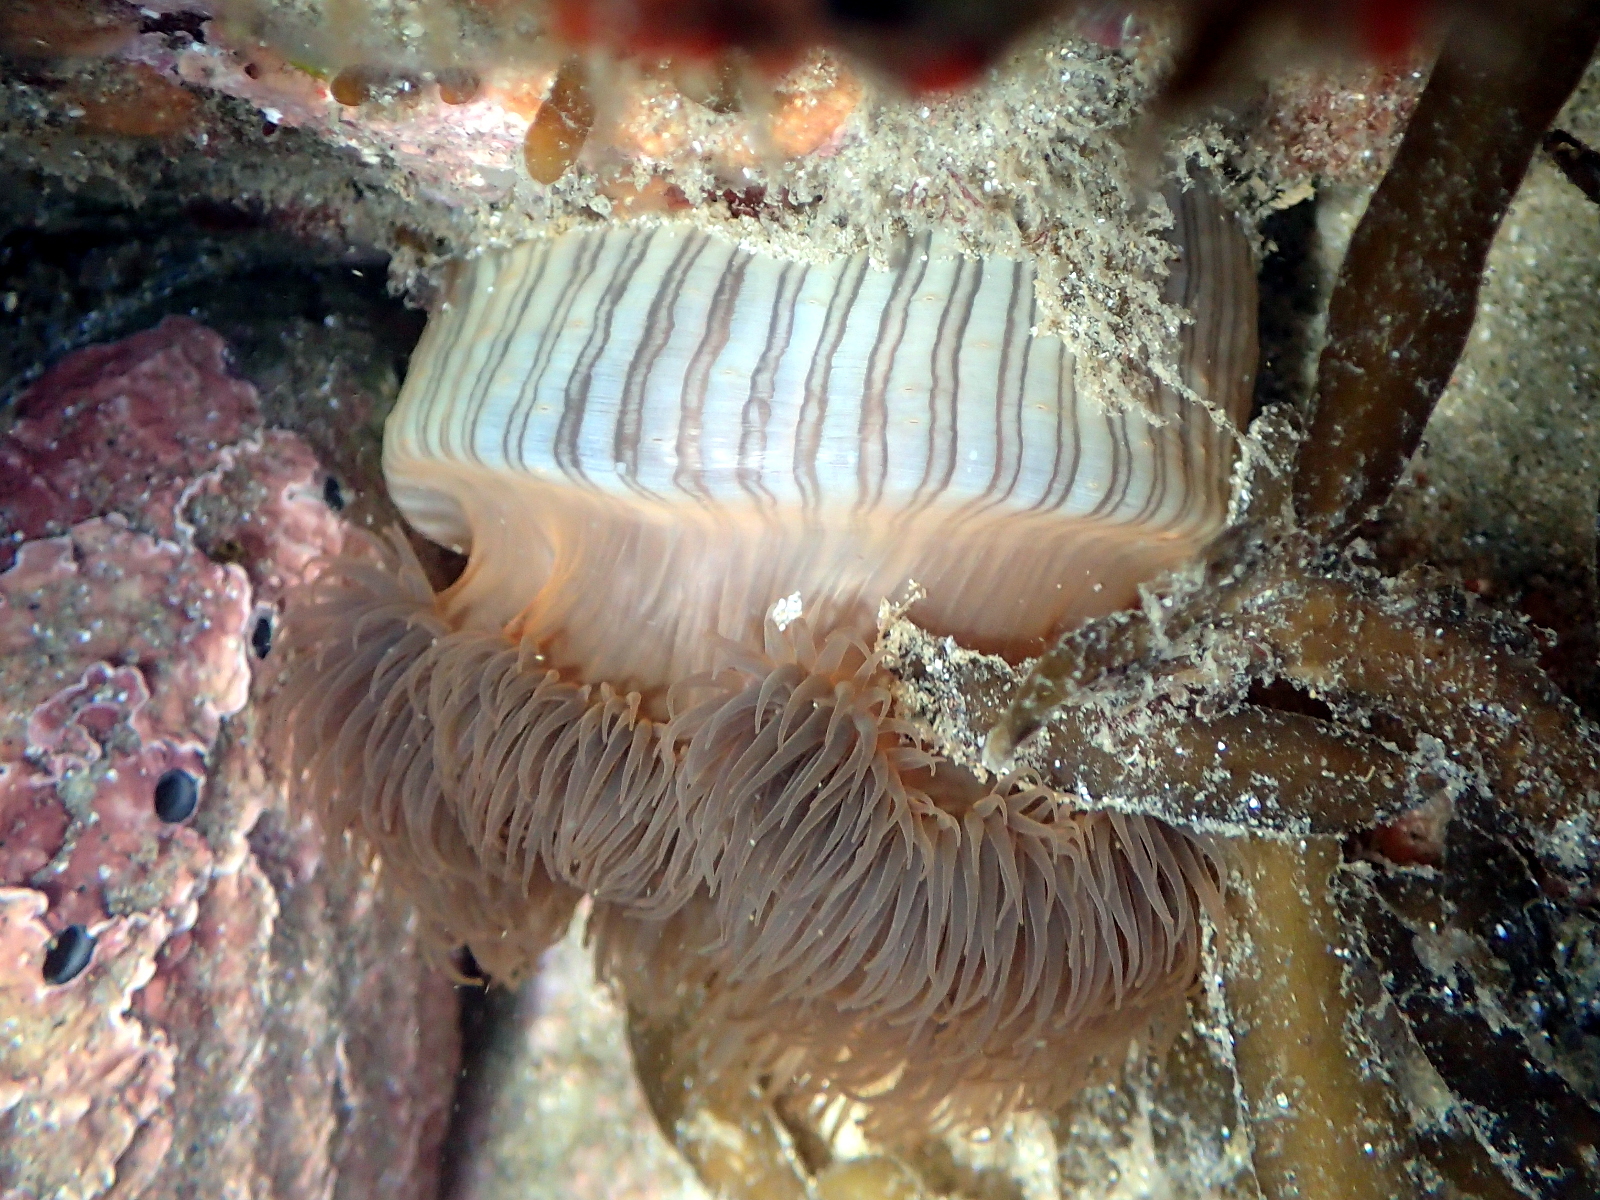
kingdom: Animalia
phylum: Cnidaria
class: Anthozoa
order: Actiniaria
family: Diadumenidae
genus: Diadumene
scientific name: Diadumene neozelanica
